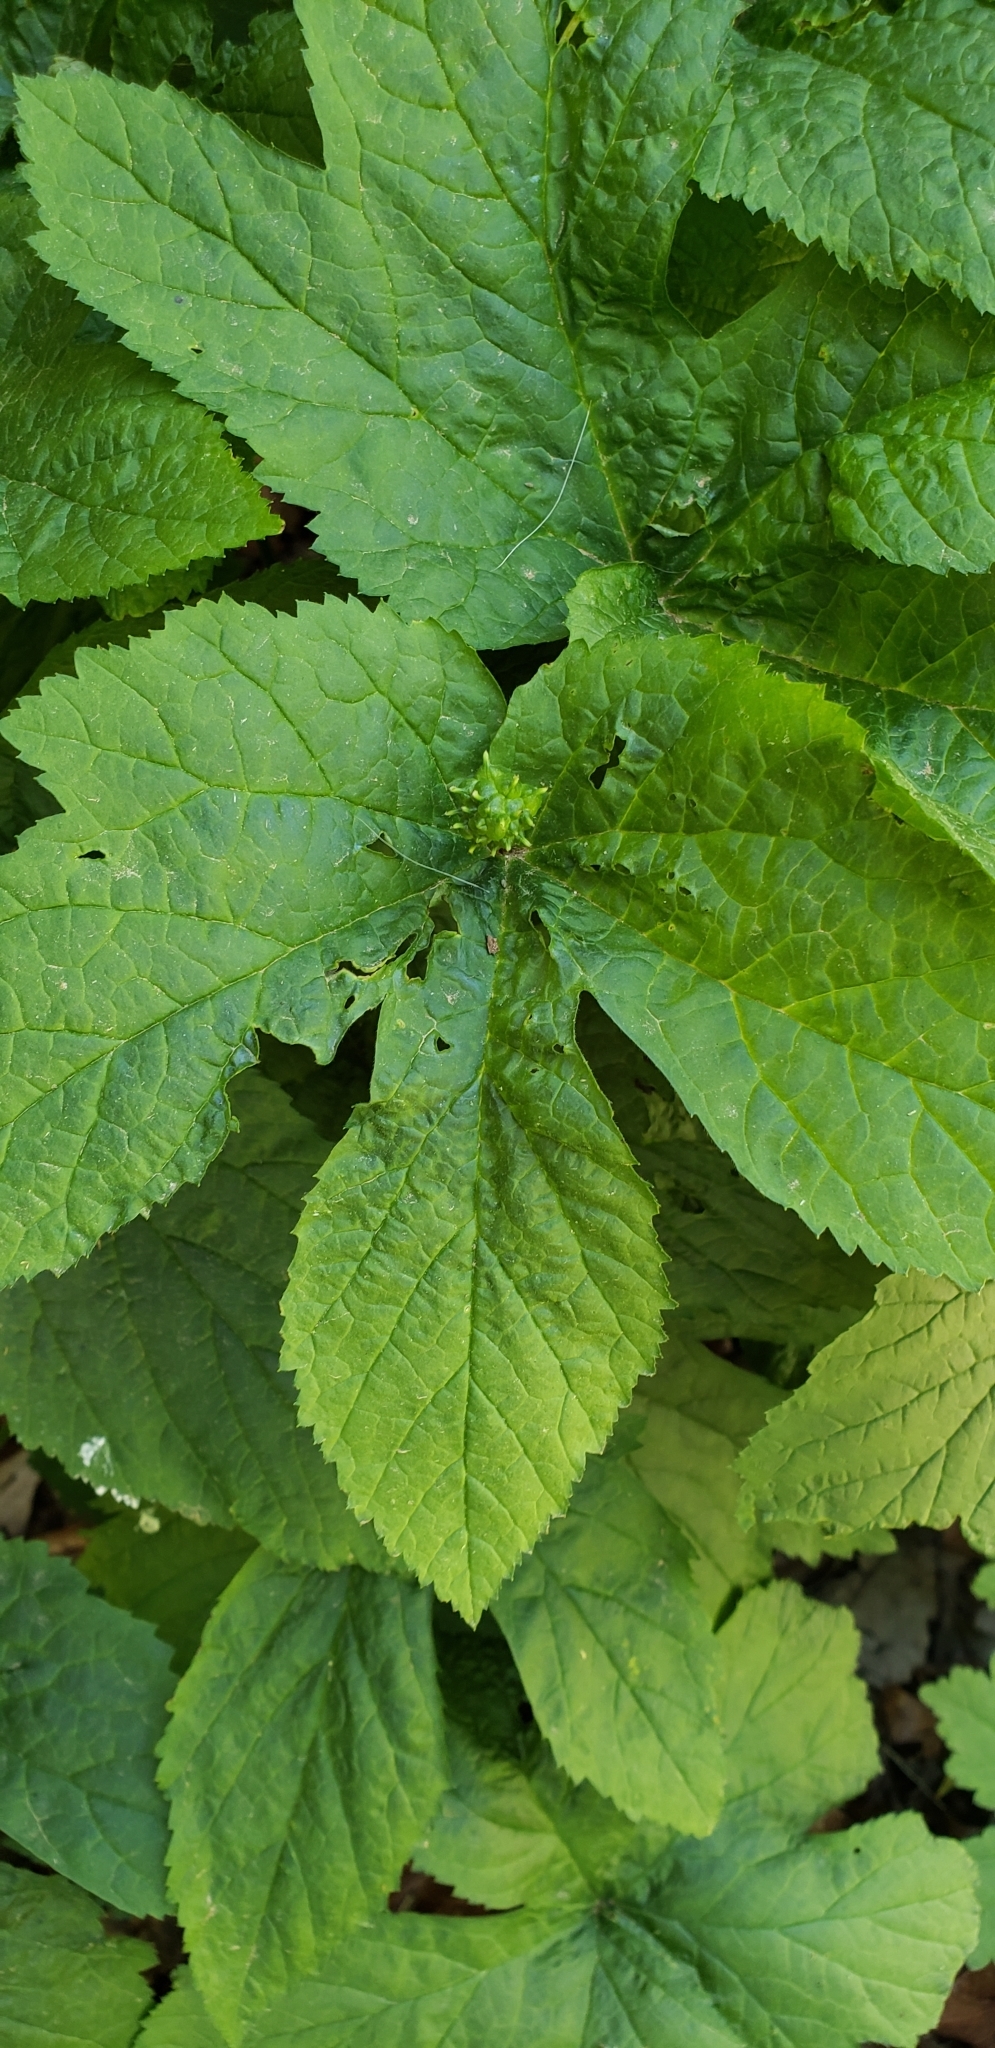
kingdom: Plantae
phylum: Tracheophyta
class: Magnoliopsida
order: Ranunculales
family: Ranunculaceae
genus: Hydrastis
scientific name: Hydrastis canadensis
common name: Goldenseal
